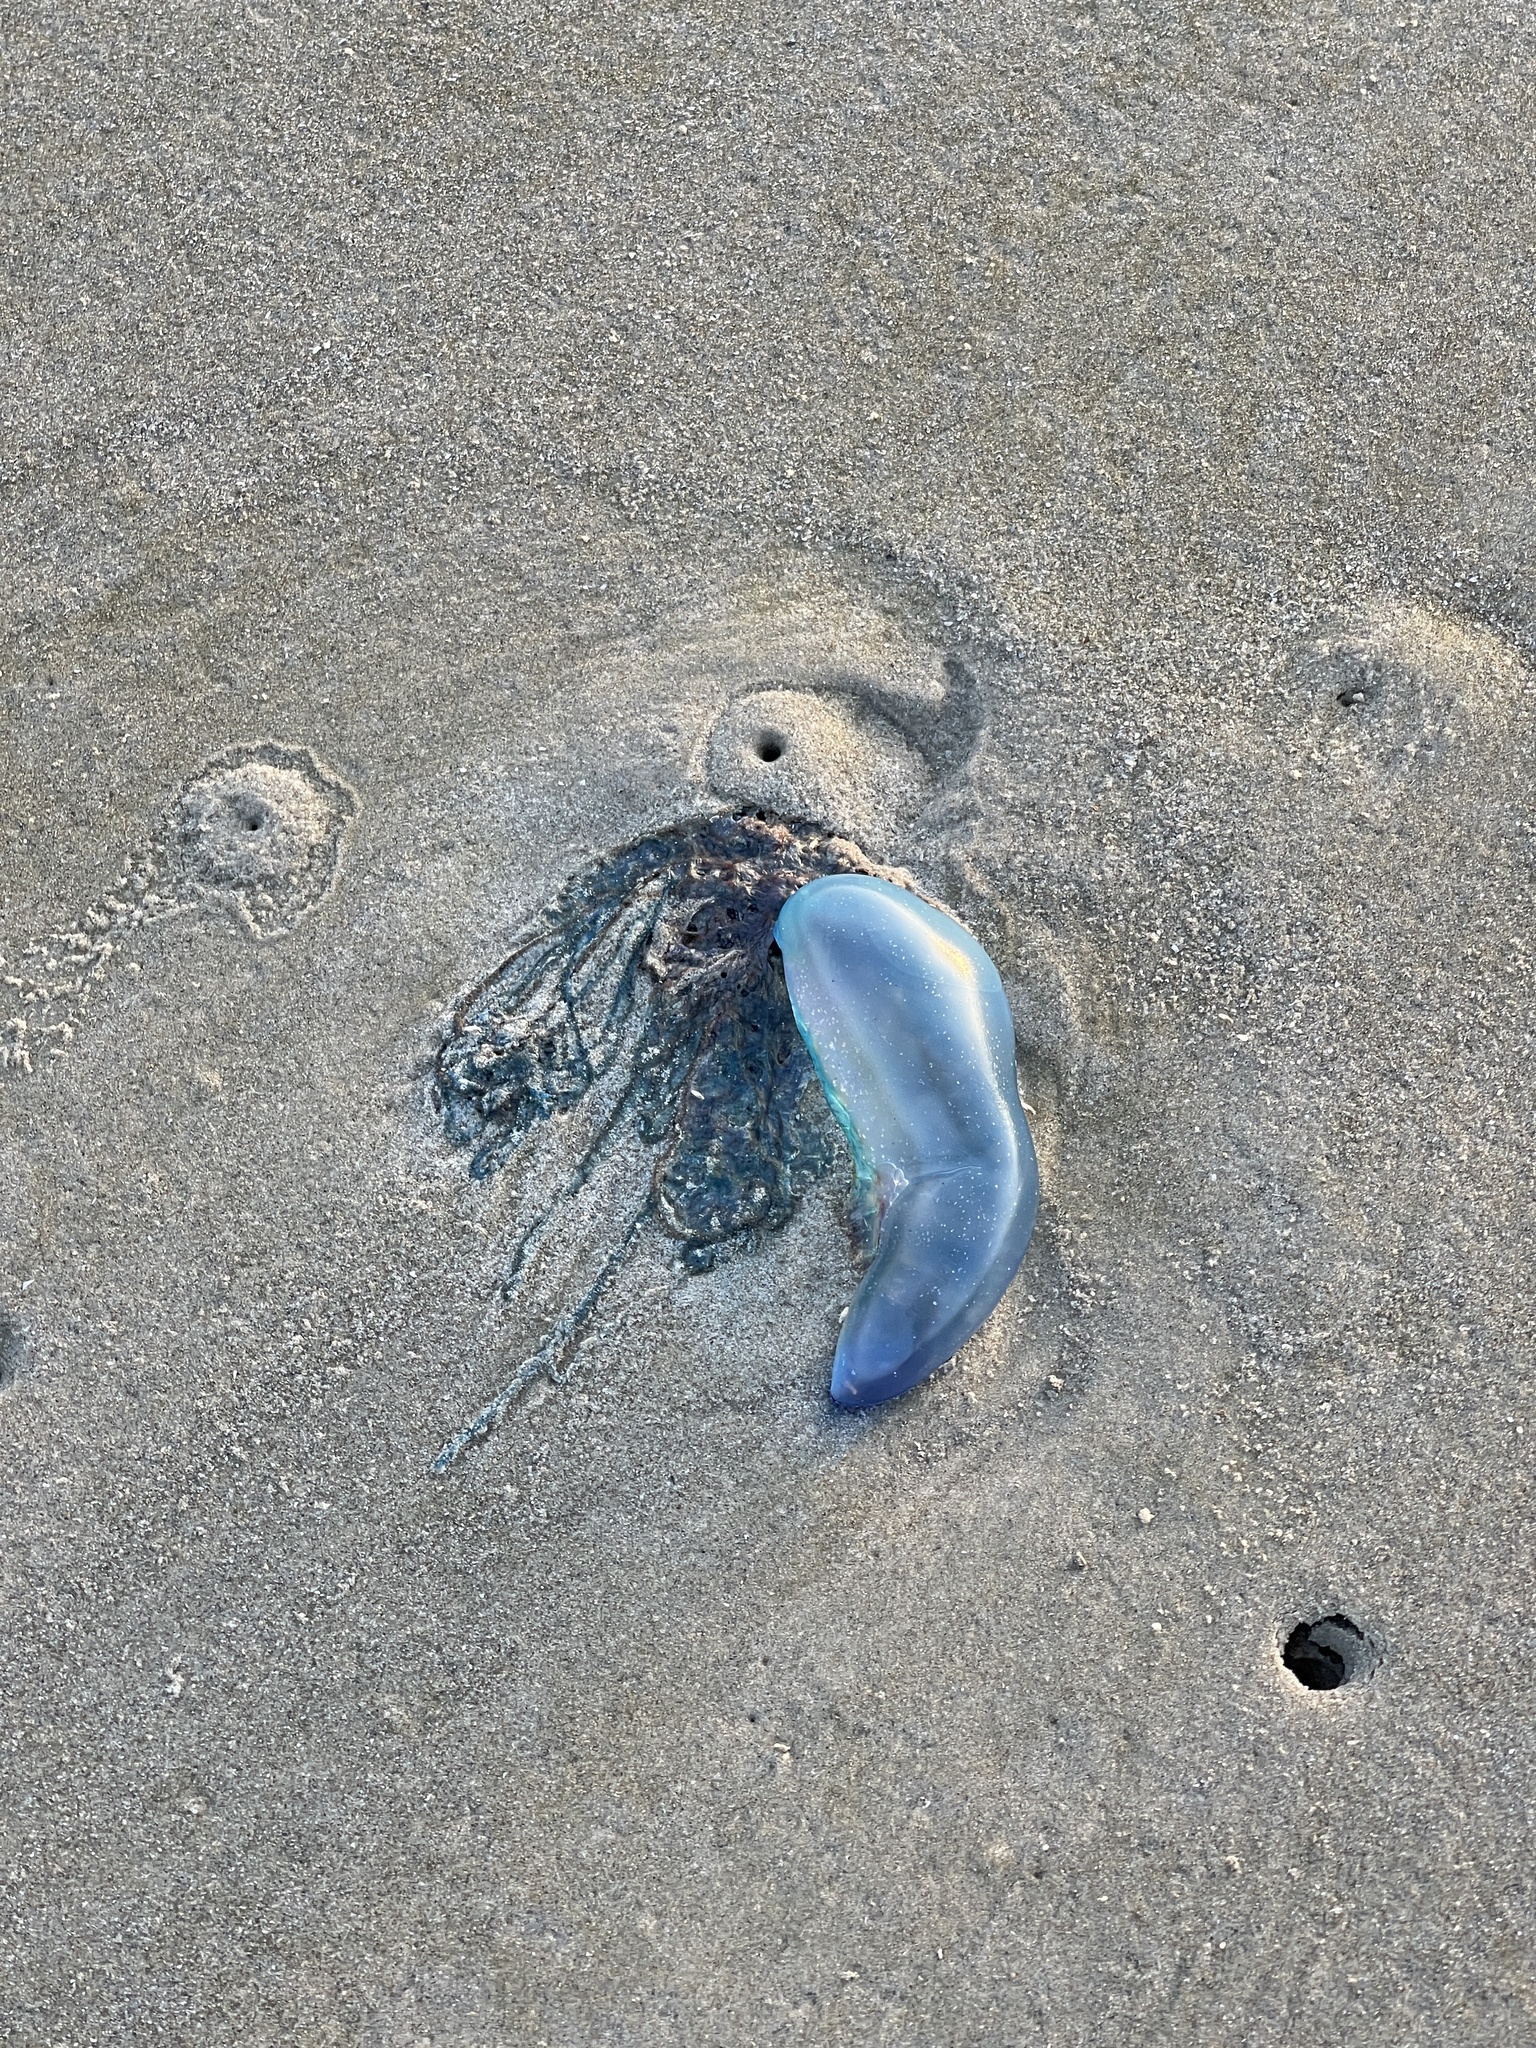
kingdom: Animalia
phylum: Cnidaria
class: Hydrozoa
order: Siphonophorae
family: Physaliidae
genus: Physalia
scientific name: Physalia physalis
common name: Portuguese man-of-war
